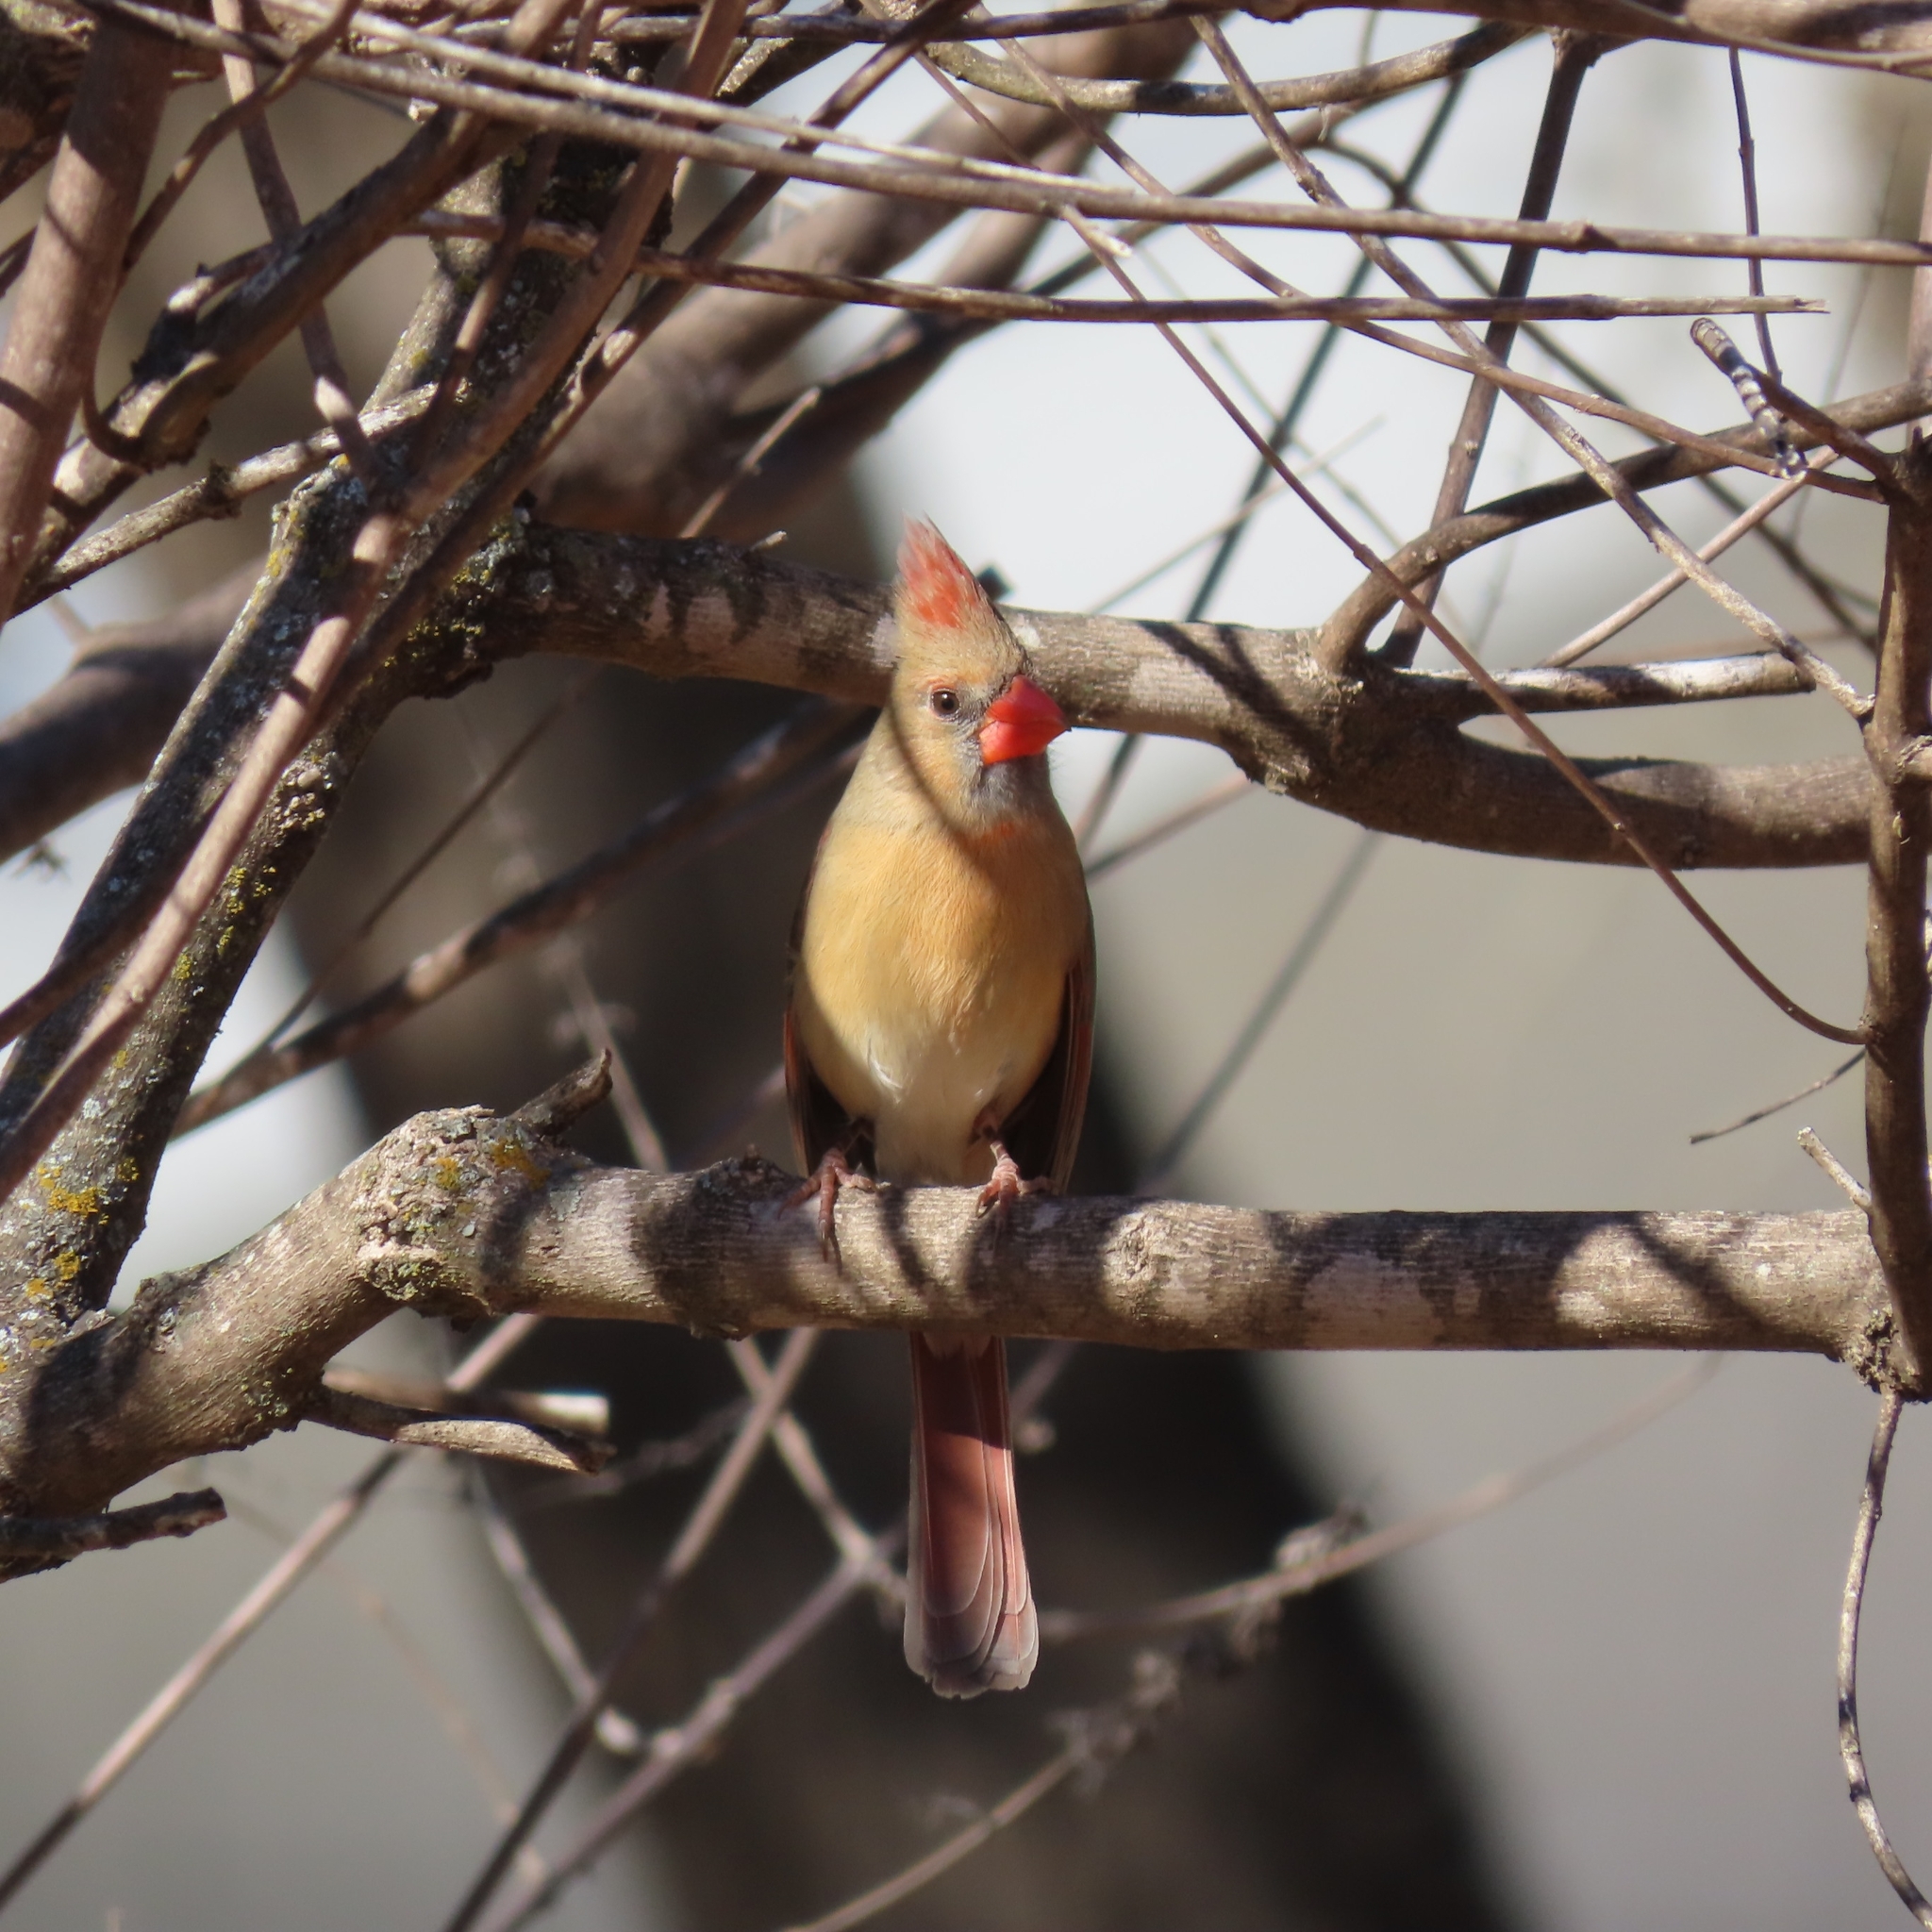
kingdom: Animalia
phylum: Chordata
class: Aves
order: Passeriformes
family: Cardinalidae
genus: Cardinalis
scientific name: Cardinalis cardinalis
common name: Northern cardinal
